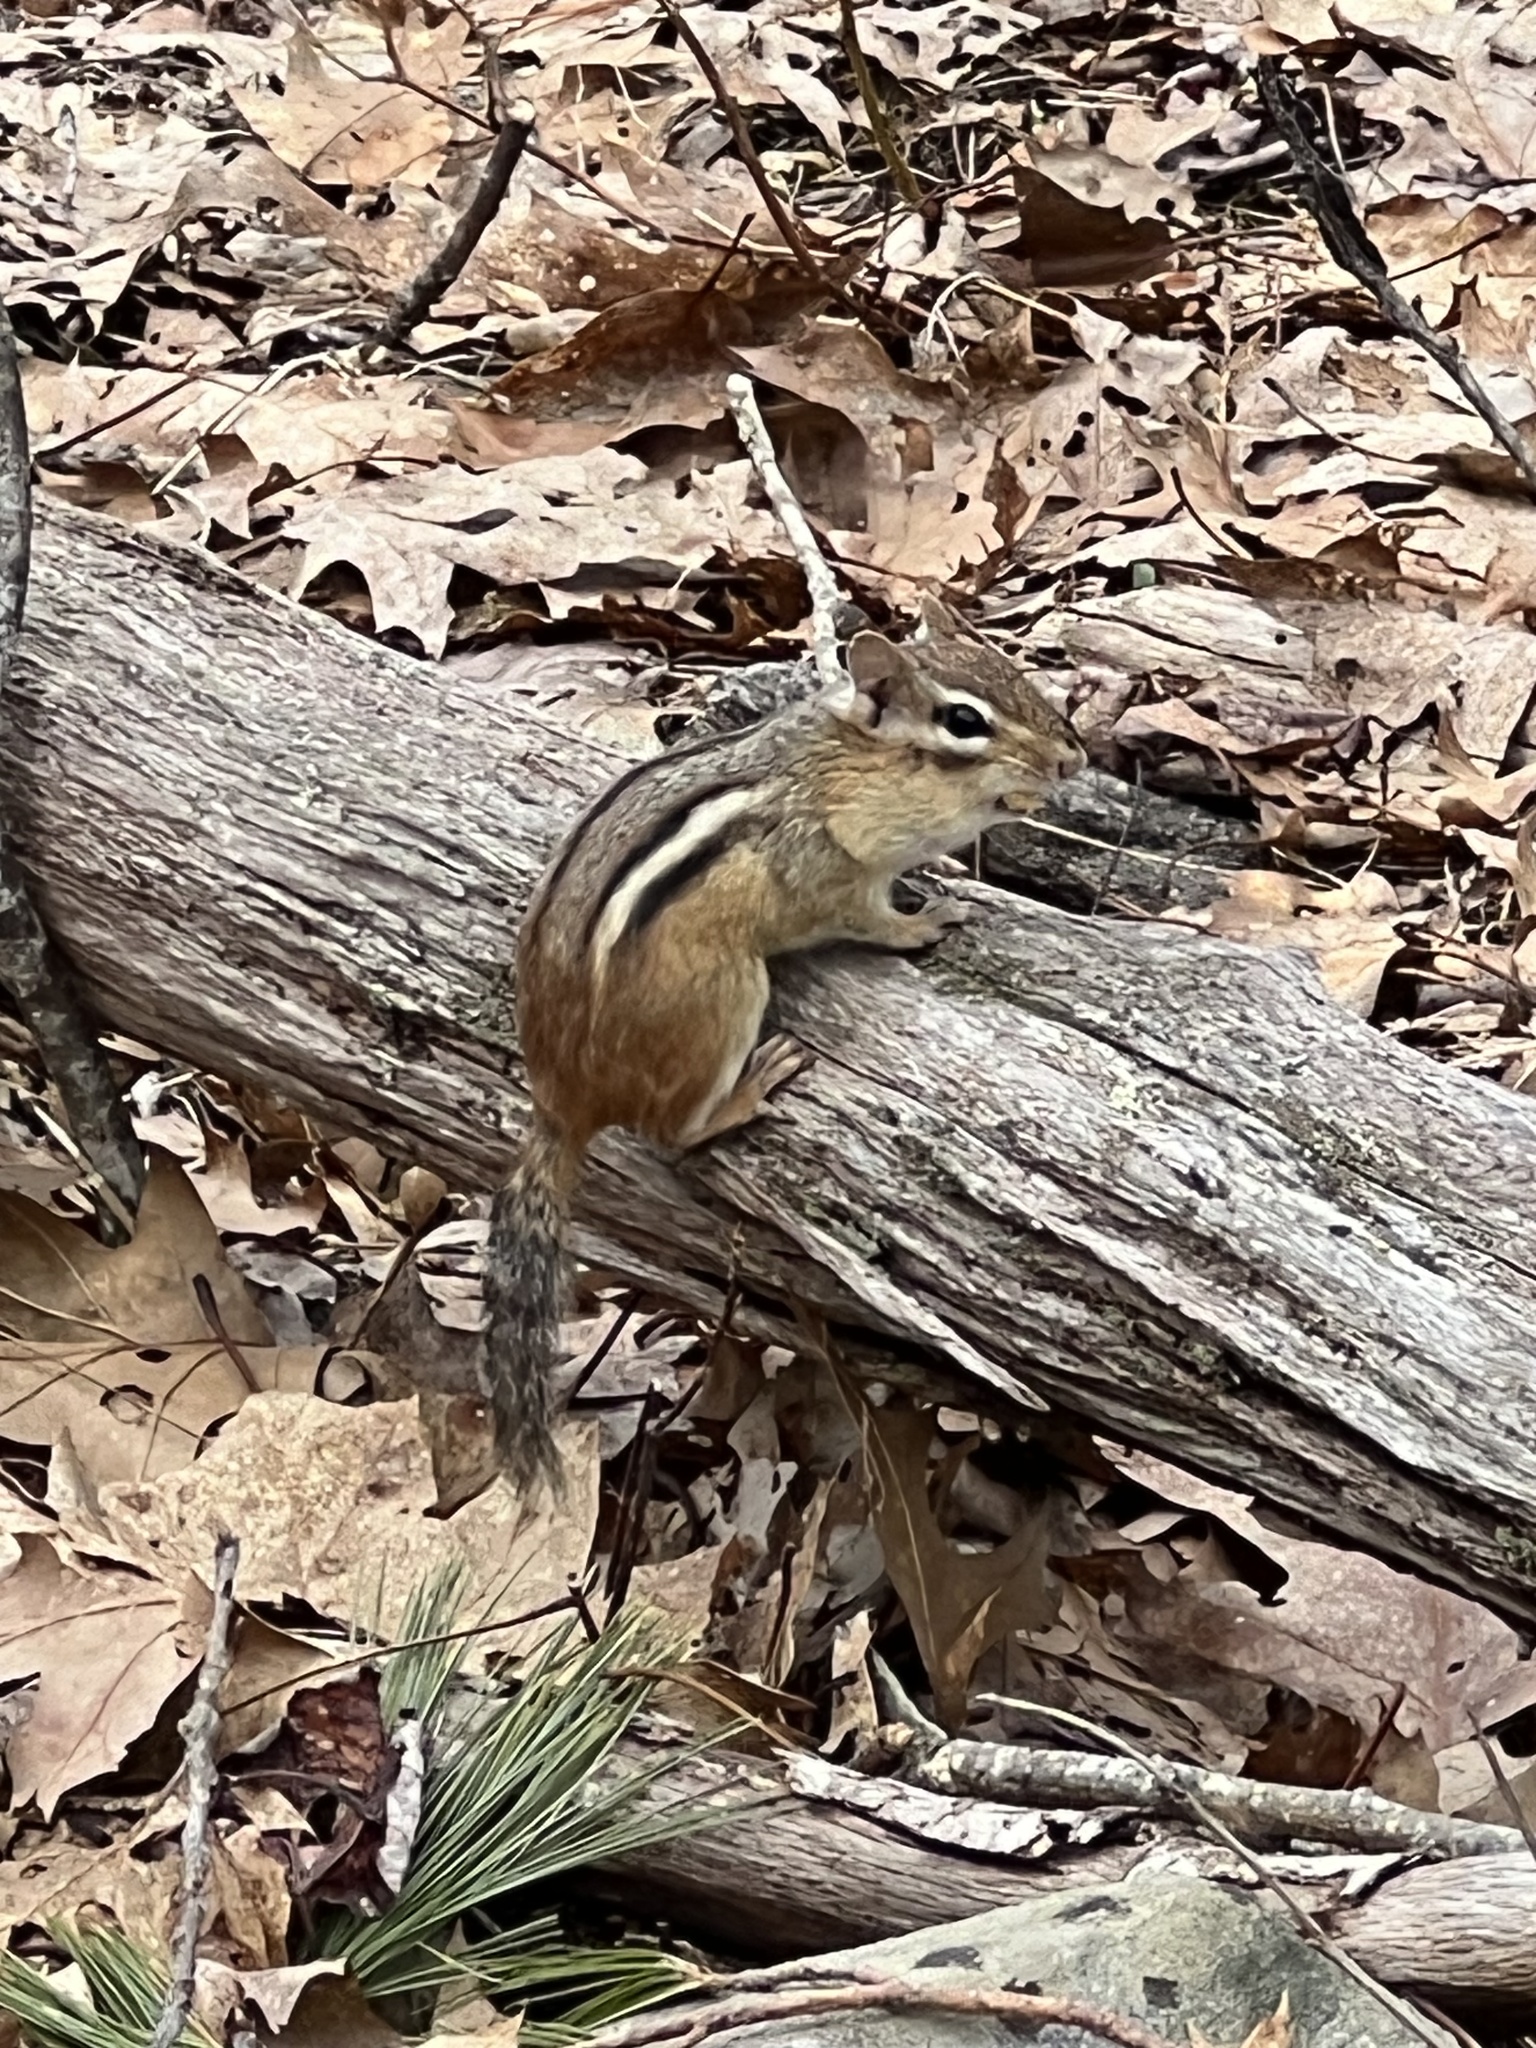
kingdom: Animalia
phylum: Chordata
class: Mammalia
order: Rodentia
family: Sciuridae
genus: Tamias
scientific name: Tamias striatus
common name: Eastern chipmunk
